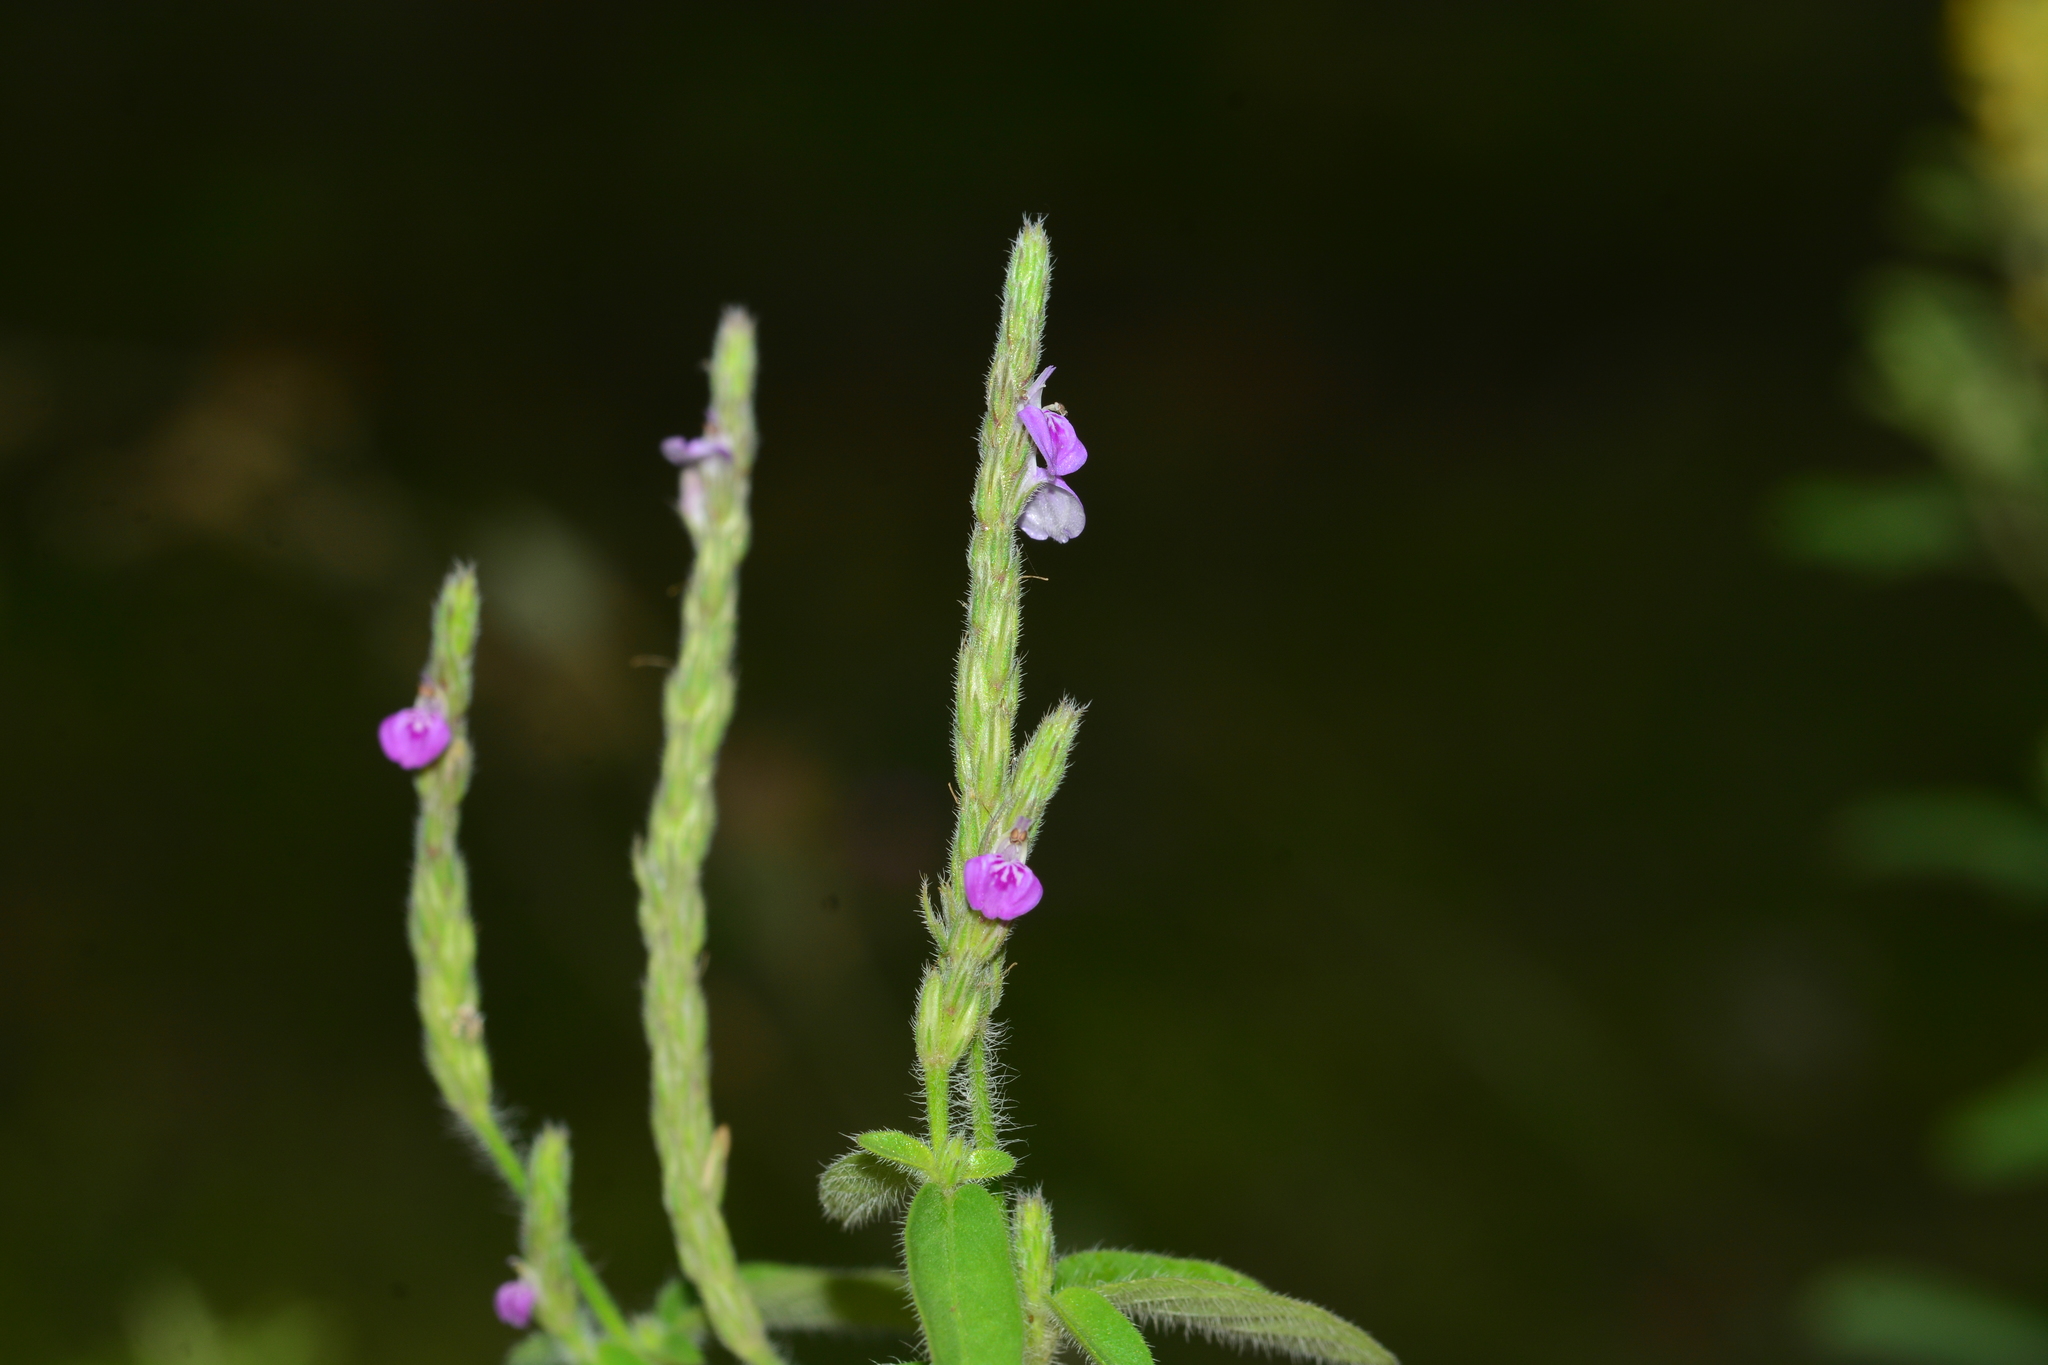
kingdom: Plantae
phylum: Tracheophyta
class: Magnoliopsida
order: Lamiales
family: Acanthaceae
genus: Justicia
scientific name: Justicia micrantha
